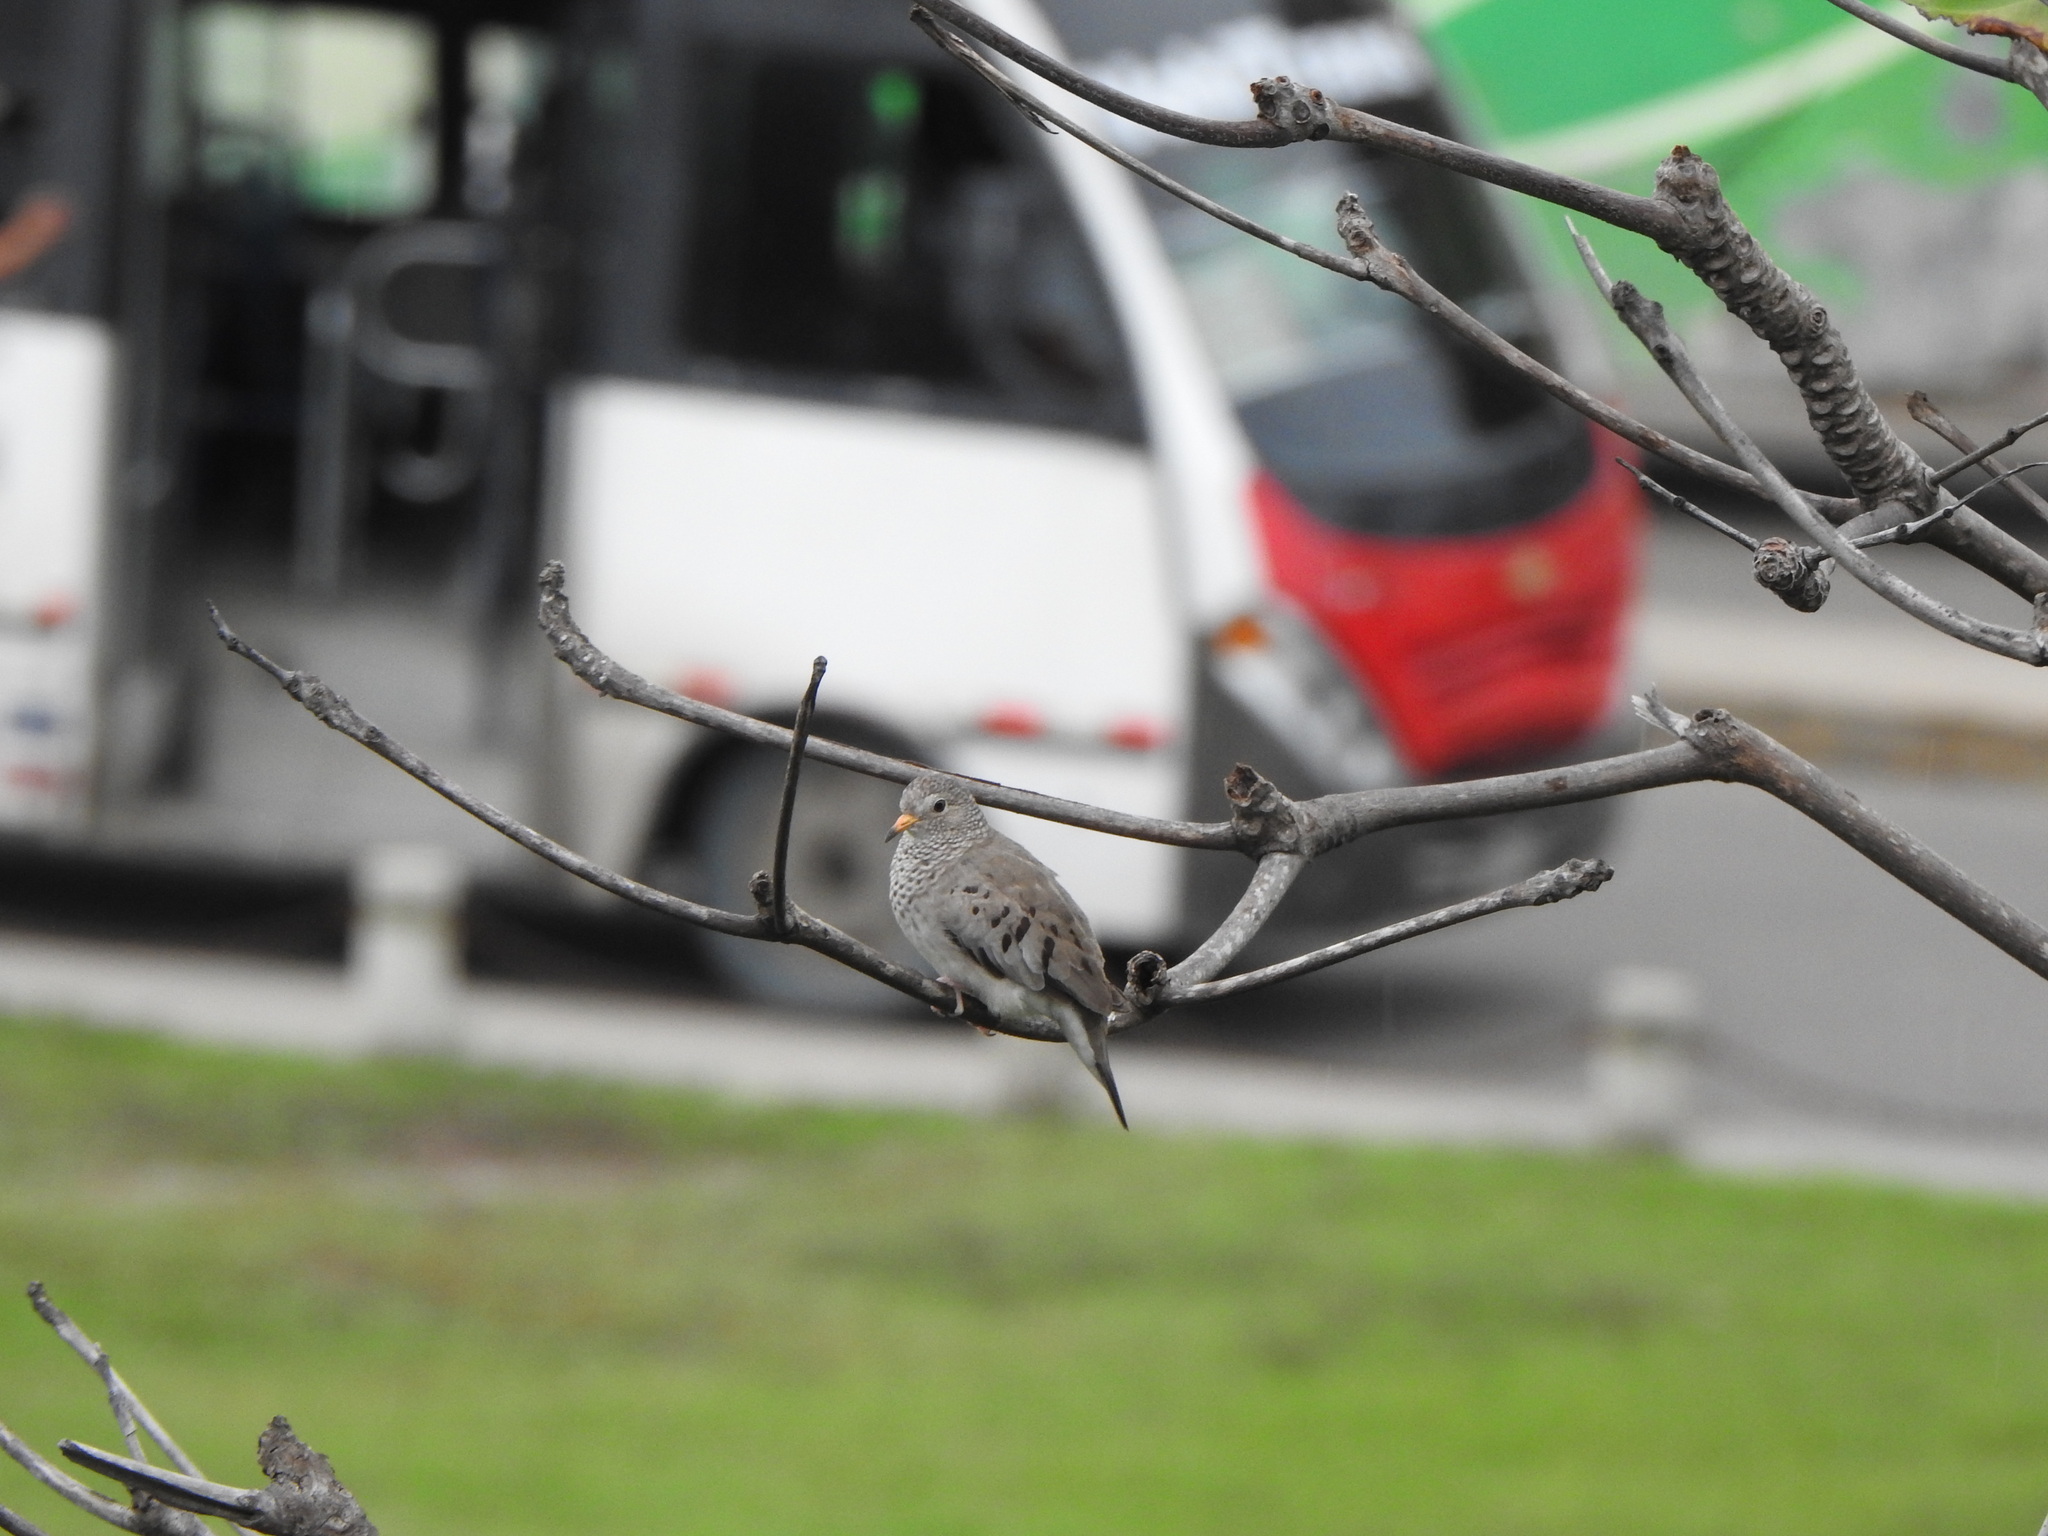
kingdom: Animalia
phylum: Chordata
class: Aves
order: Columbiformes
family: Columbidae
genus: Columbina
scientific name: Columbina passerina
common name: Common ground-dove
